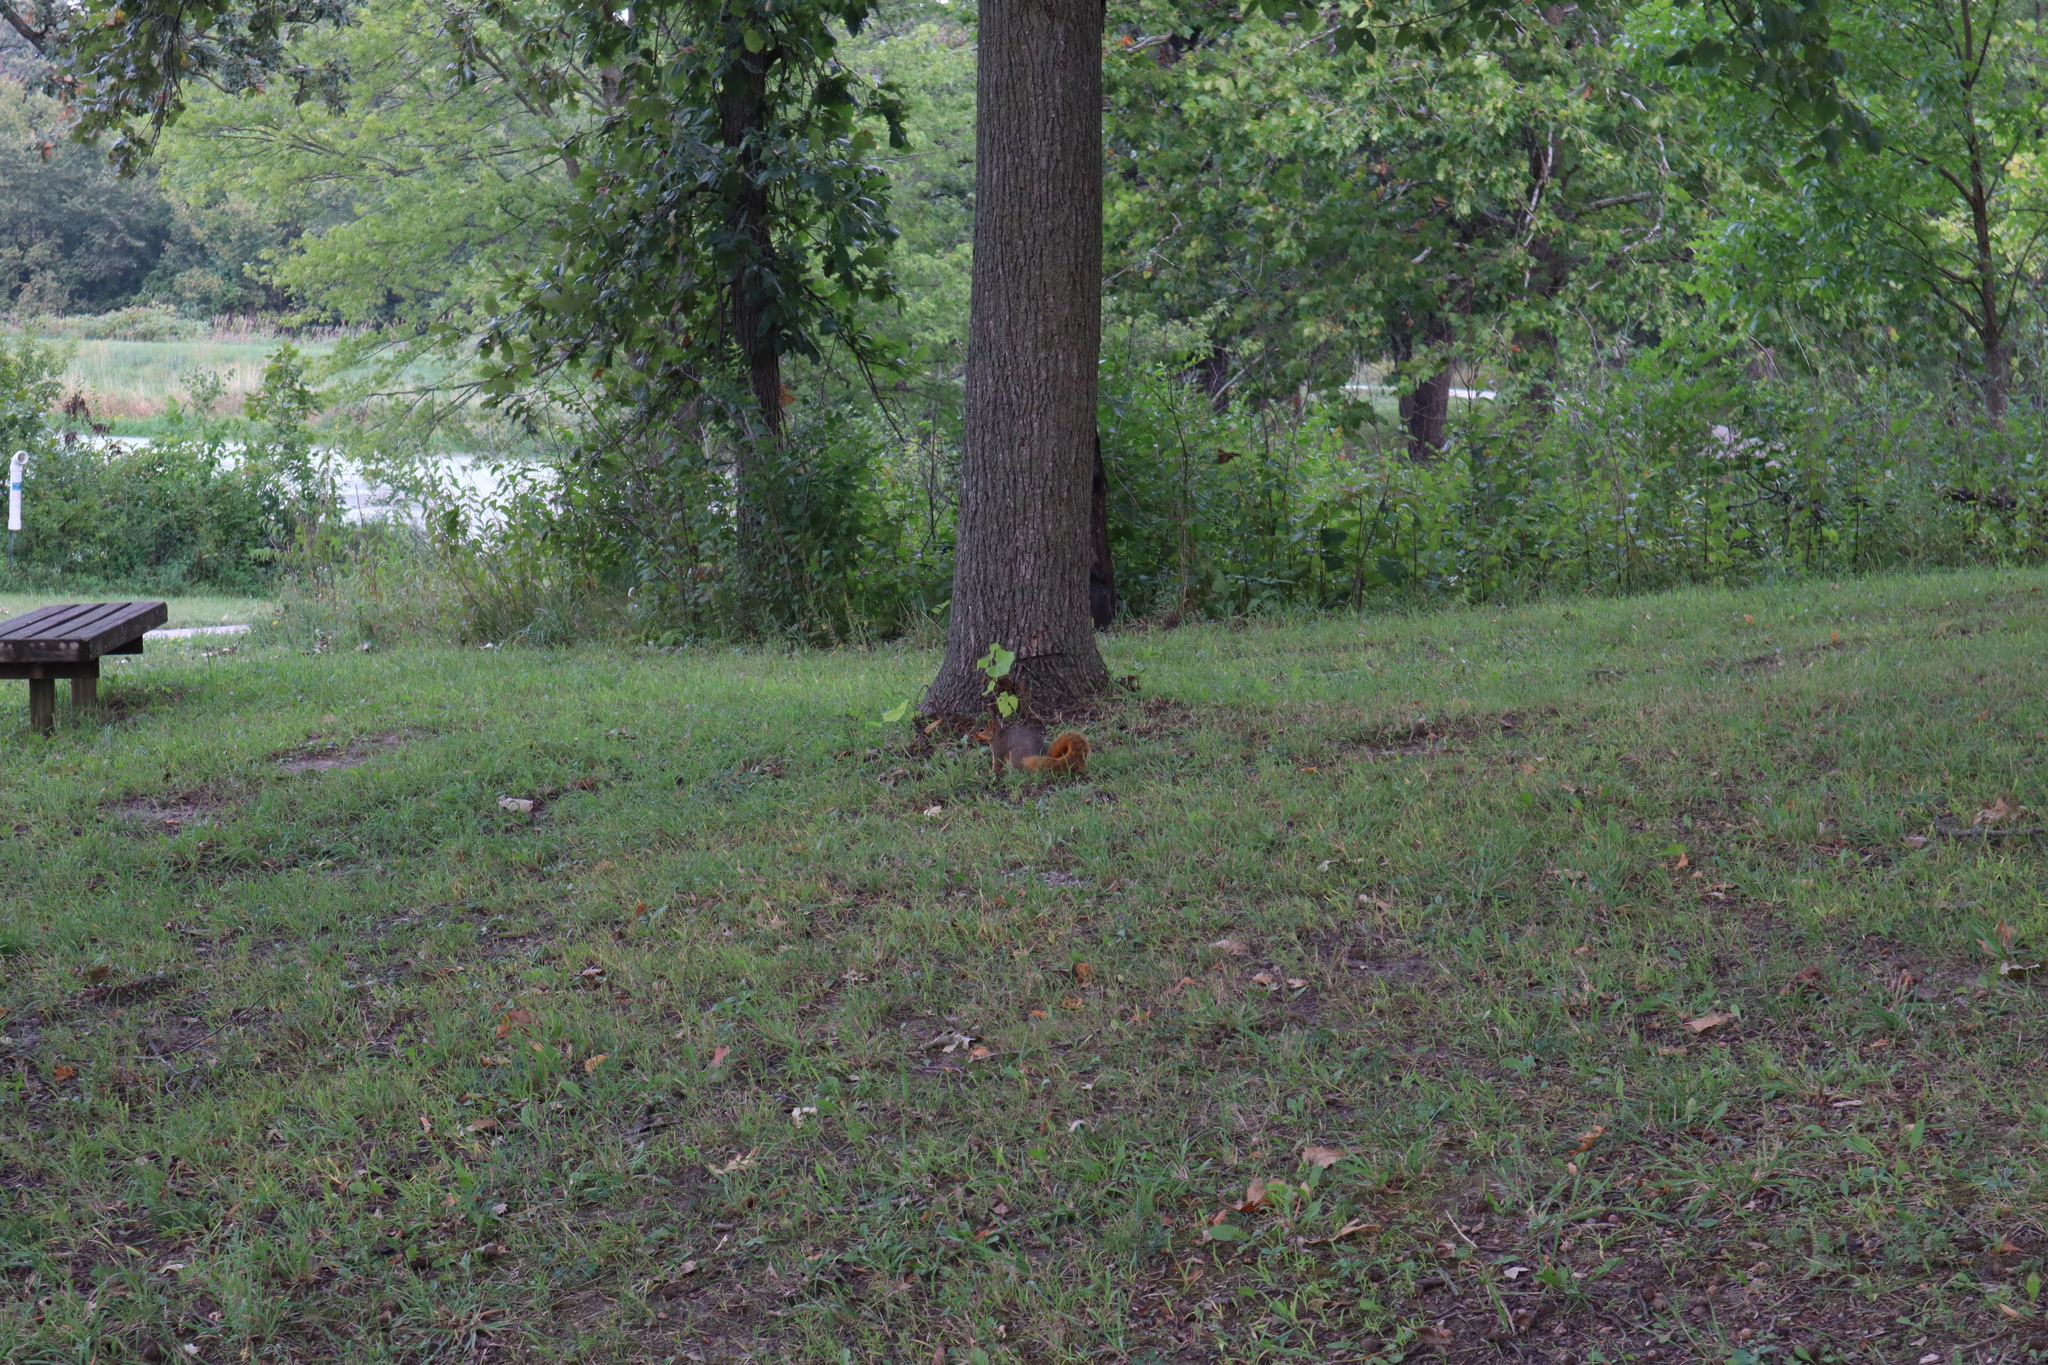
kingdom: Animalia
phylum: Chordata
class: Mammalia
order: Rodentia
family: Sciuridae
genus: Sciurus
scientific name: Sciurus niger
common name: Fox squirrel
